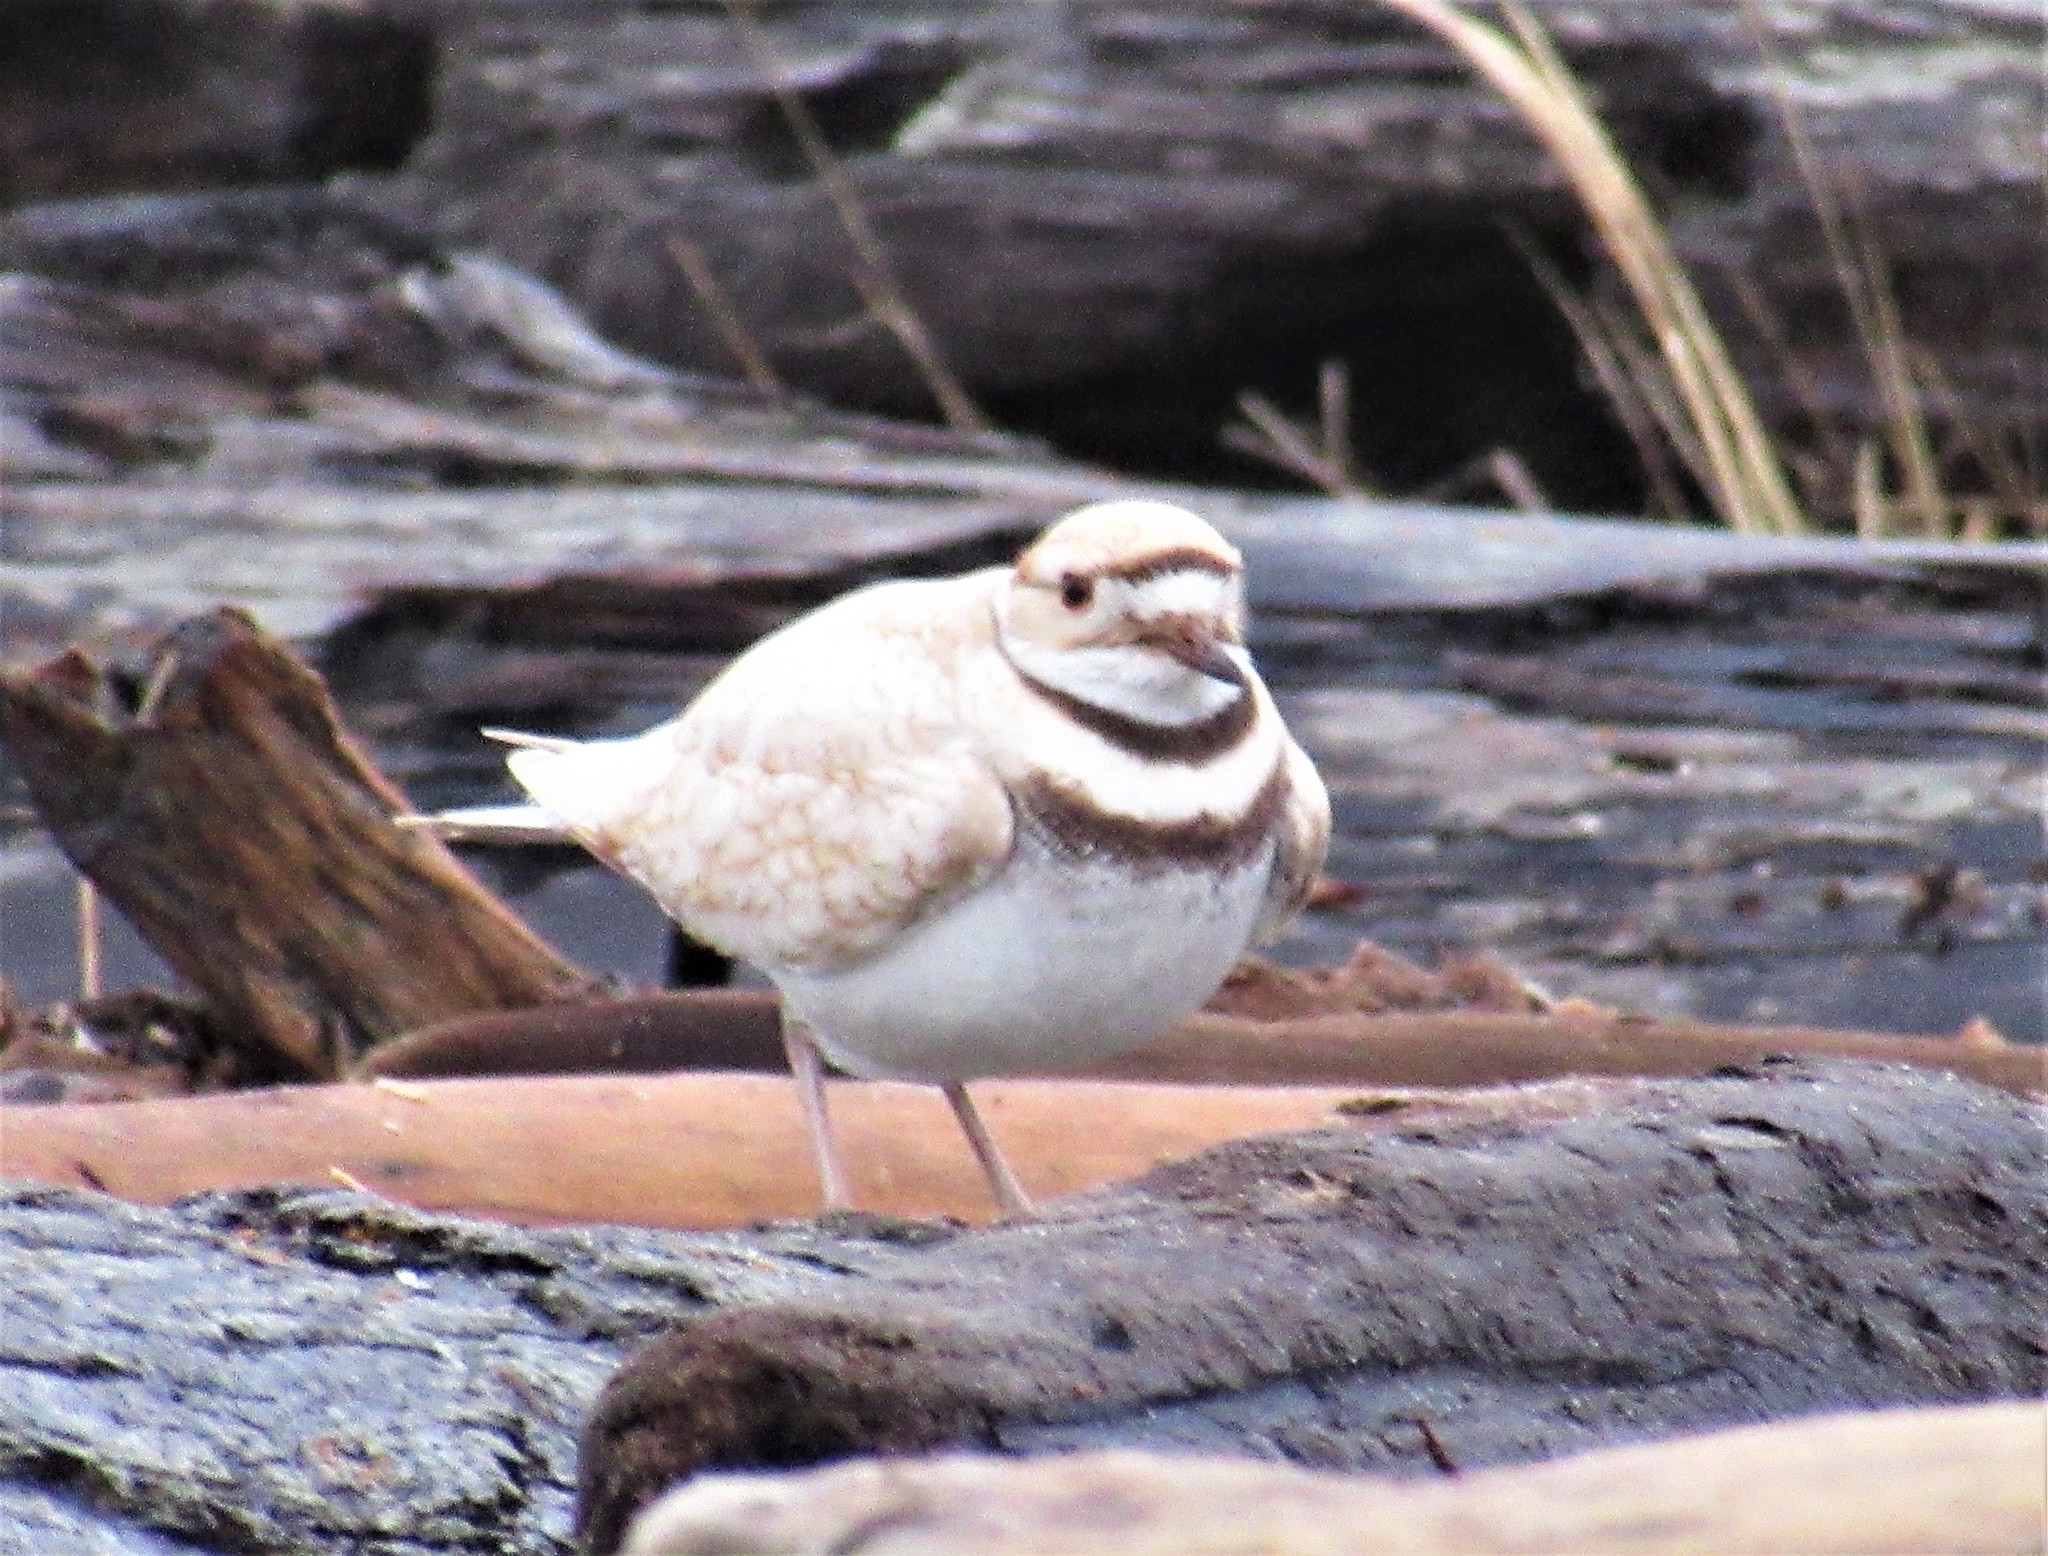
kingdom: Animalia
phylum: Chordata
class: Aves
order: Charadriiformes
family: Charadriidae
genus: Charadrius
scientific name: Charadrius vociferus
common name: Killdeer
